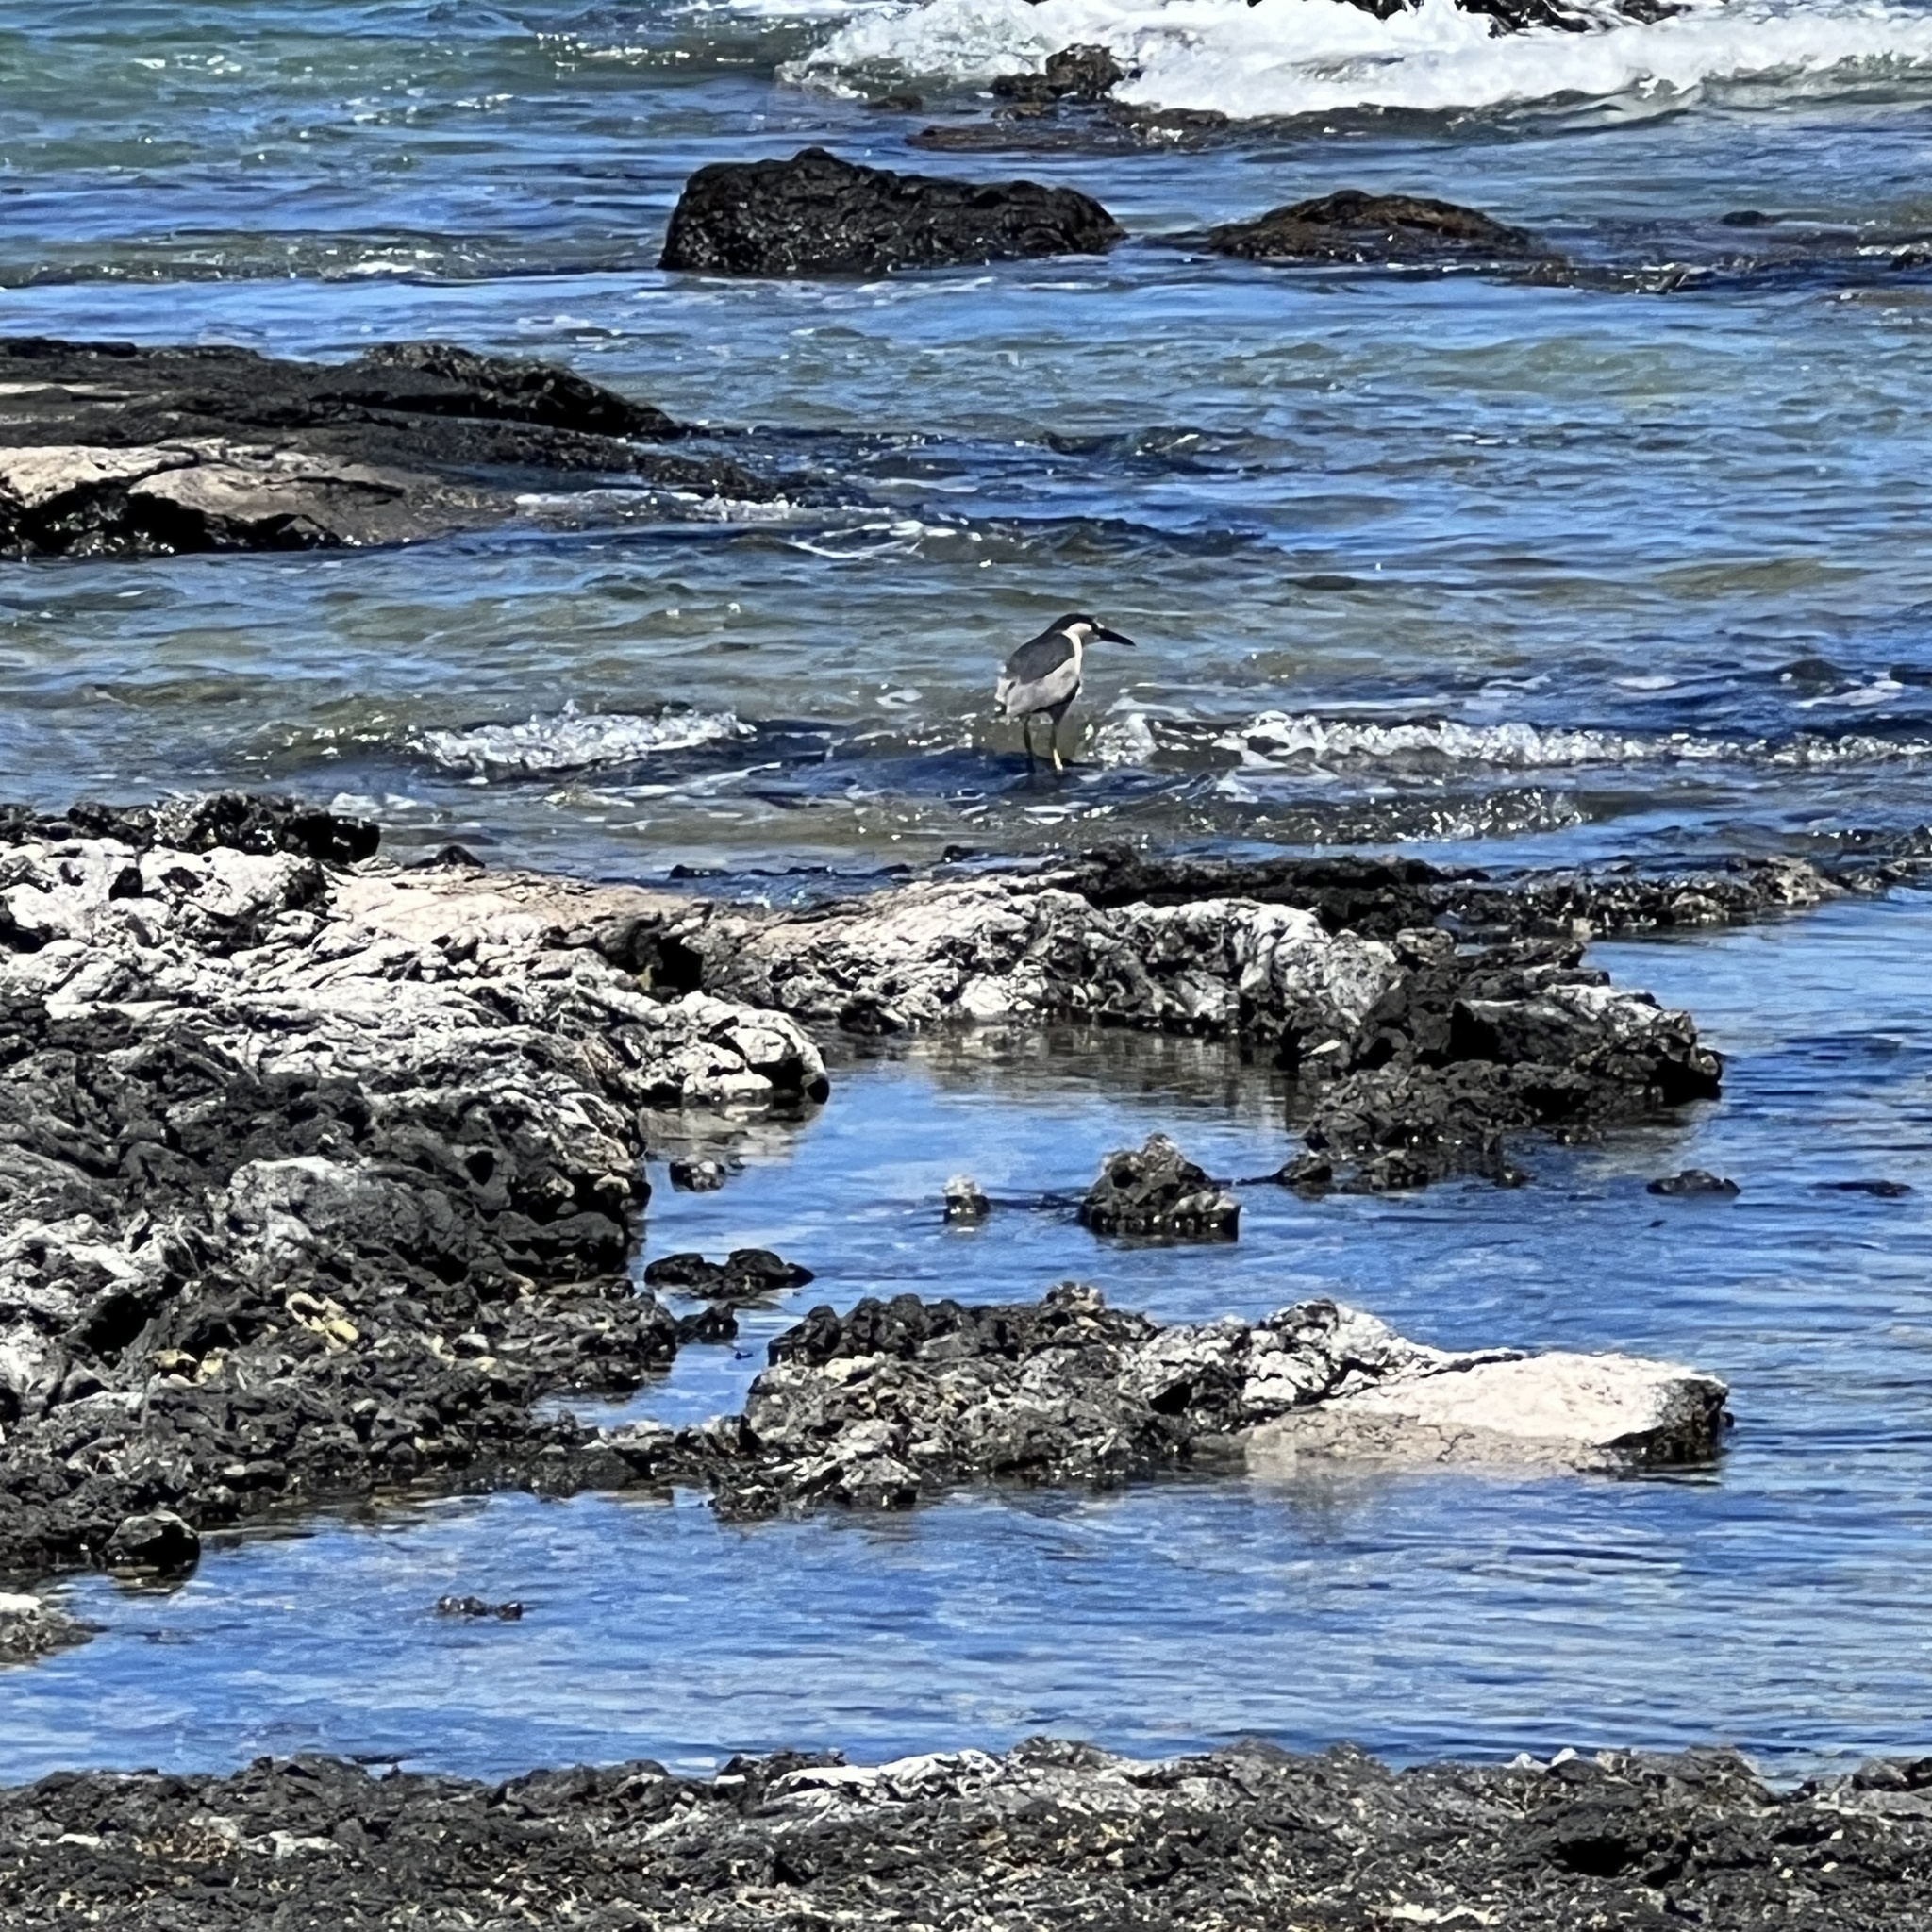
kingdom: Animalia
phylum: Chordata
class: Aves
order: Pelecaniformes
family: Ardeidae
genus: Nycticorax
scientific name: Nycticorax nycticorax
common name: Black-crowned night heron
